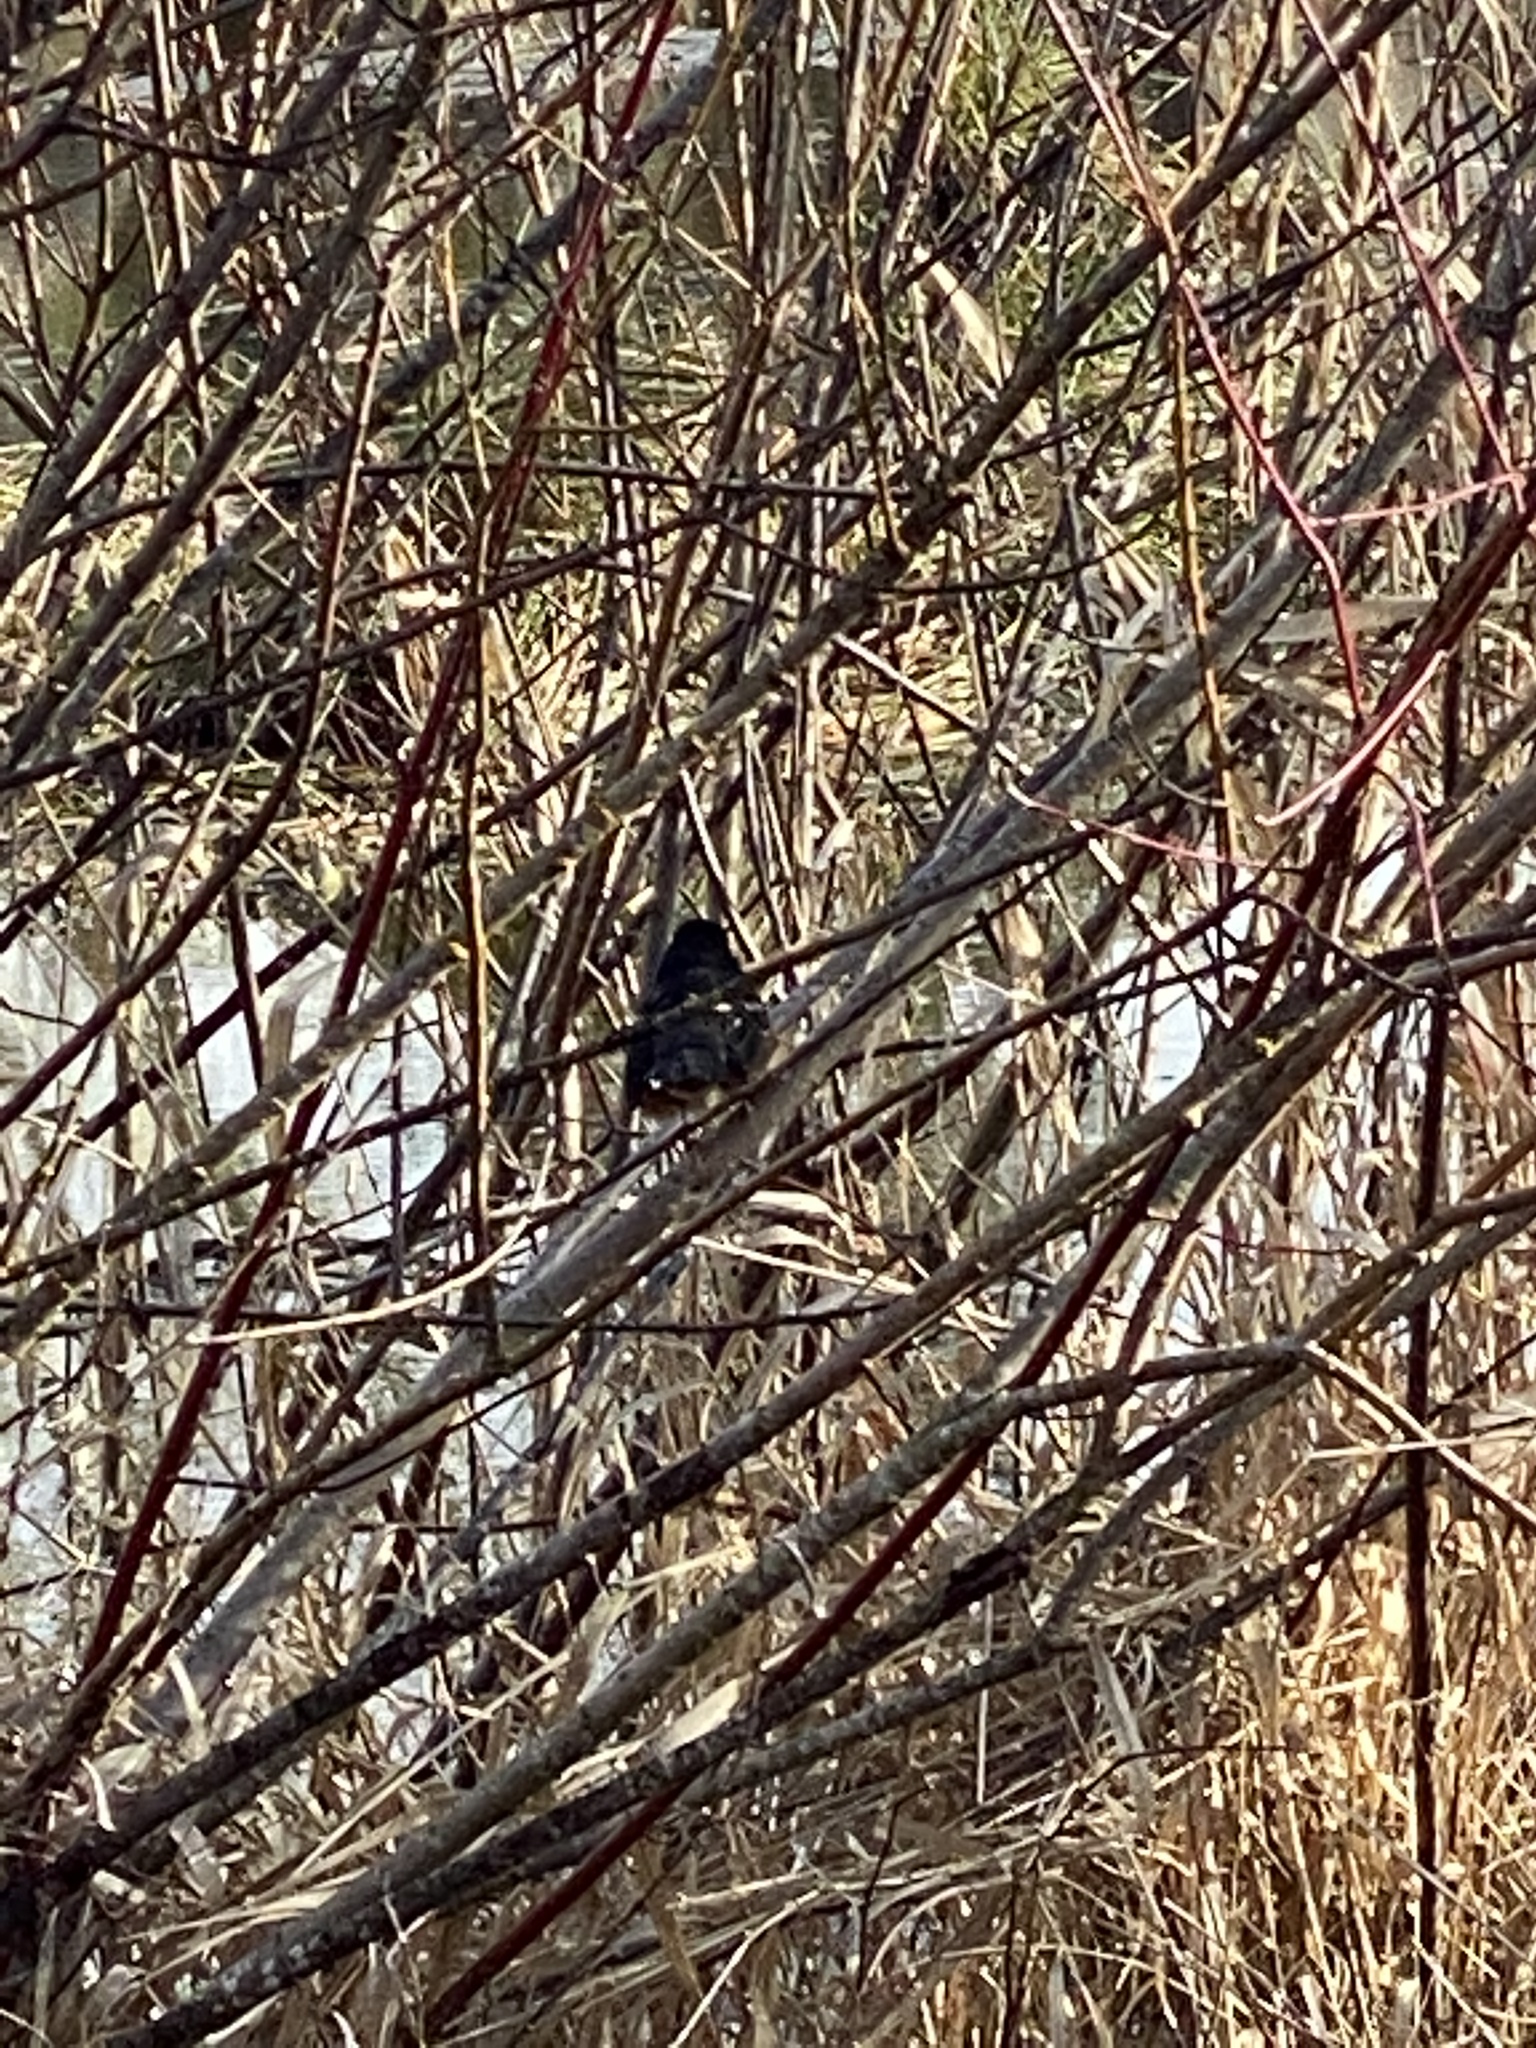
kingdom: Animalia
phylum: Chordata
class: Aves
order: Passeriformes
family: Passerellidae
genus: Pipilo
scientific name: Pipilo maculatus
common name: Spotted towhee
